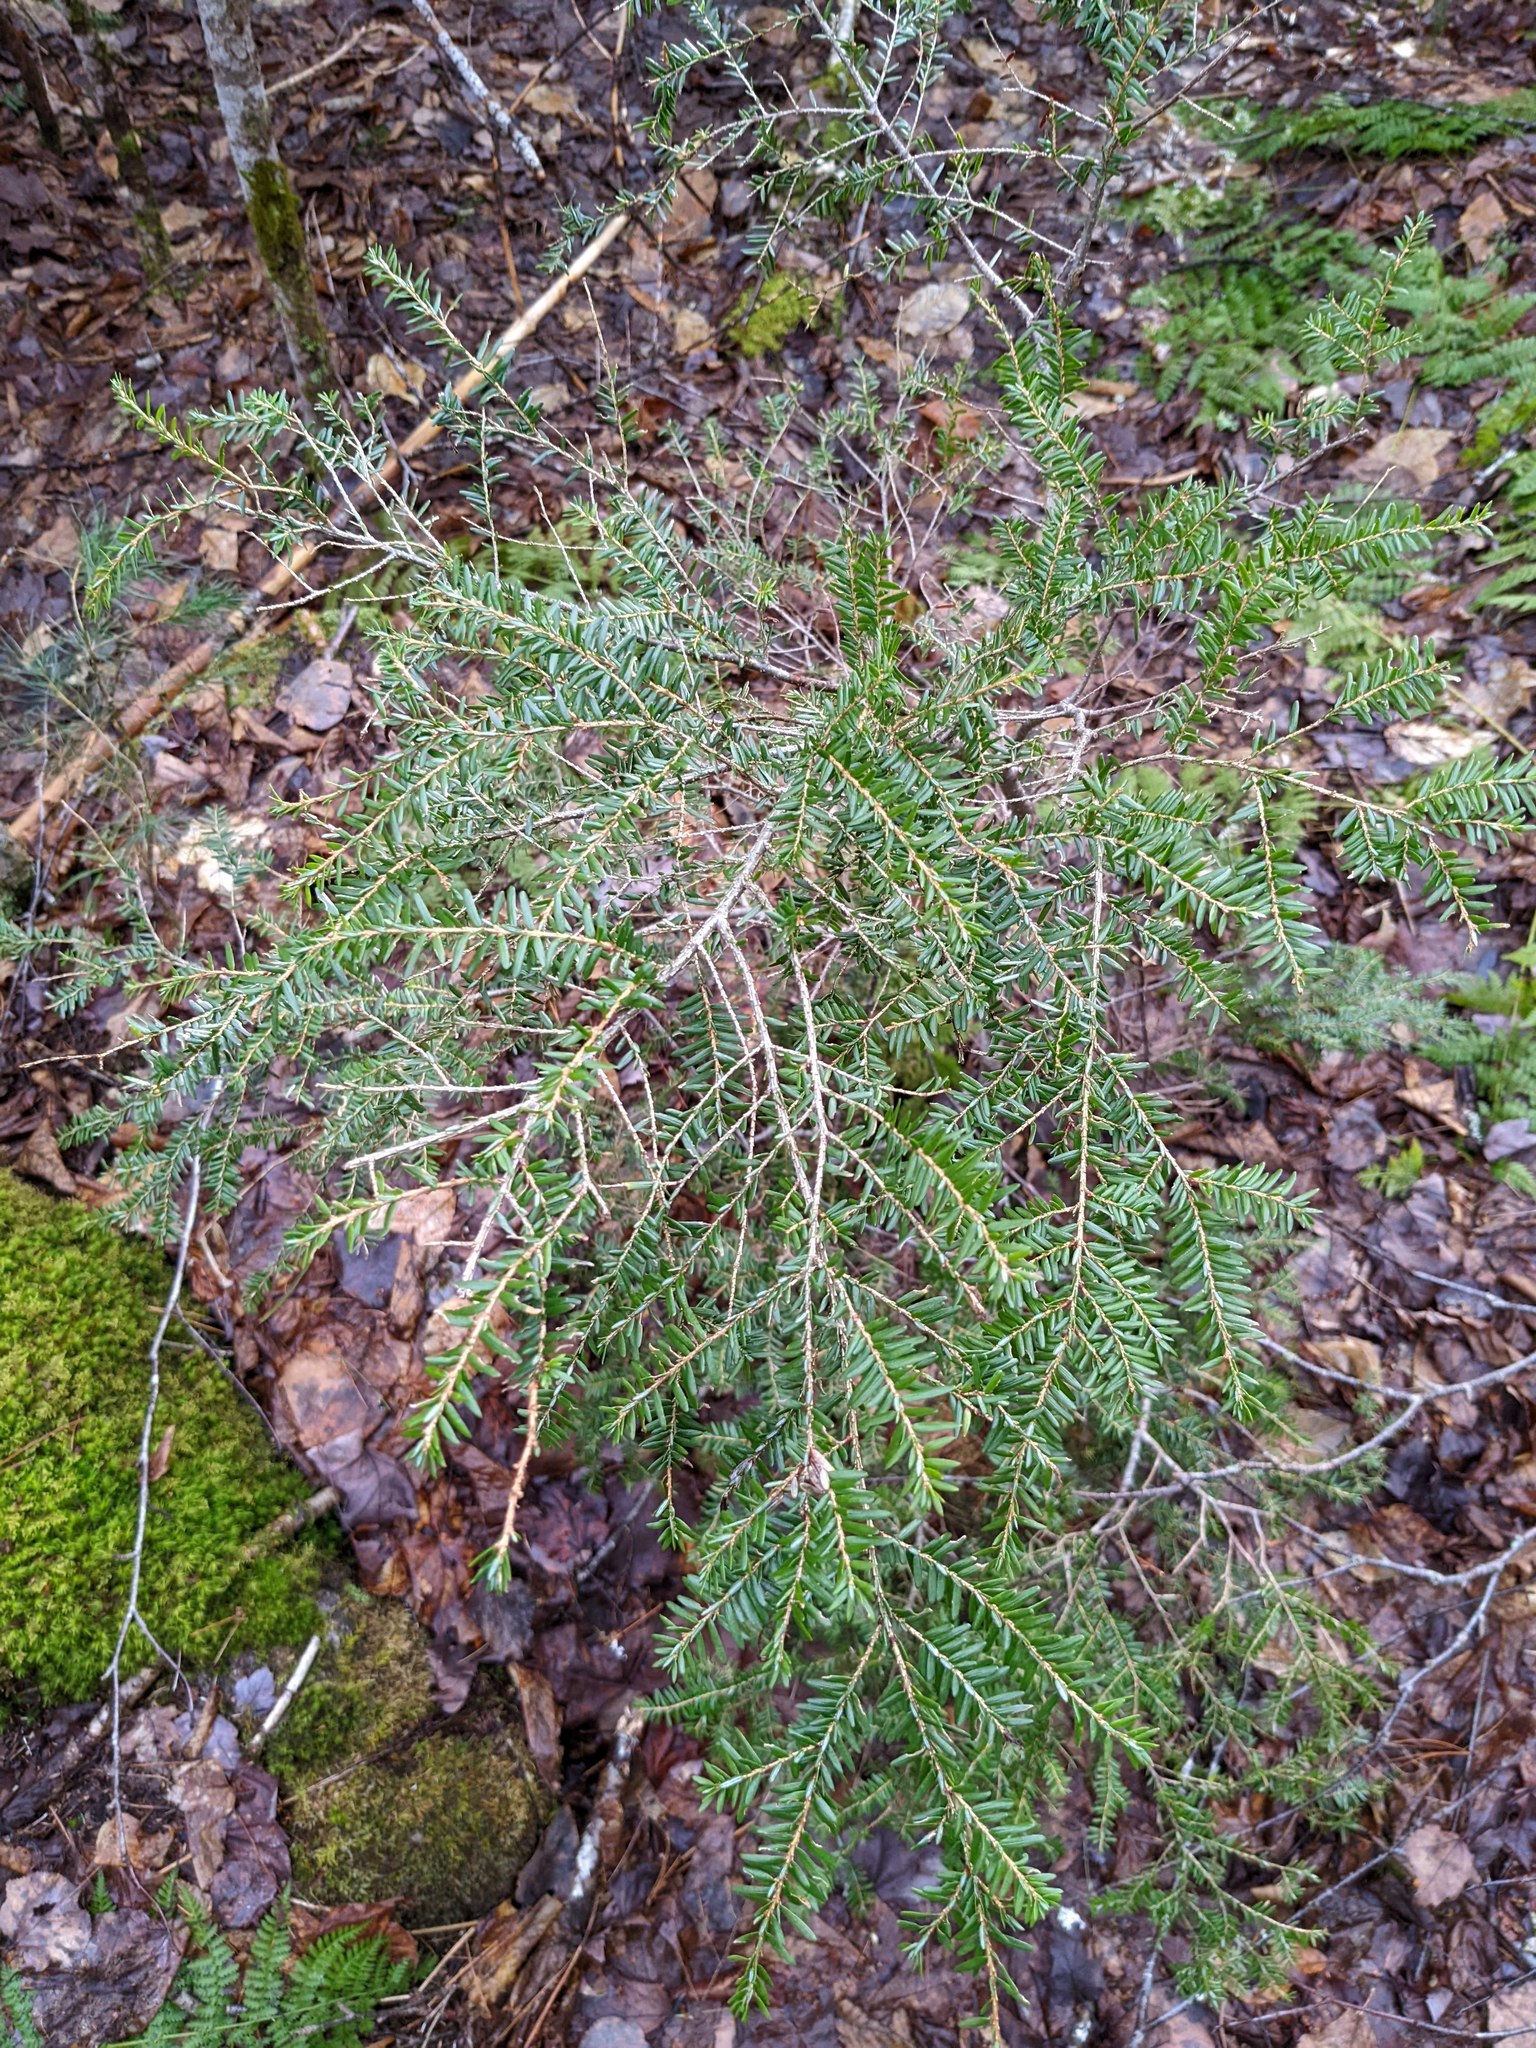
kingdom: Plantae
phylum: Tracheophyta
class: Pinopsida
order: Pinales
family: Pinaceae
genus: Tsuga
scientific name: Tsuga canadensis
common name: Eastern hemlock
